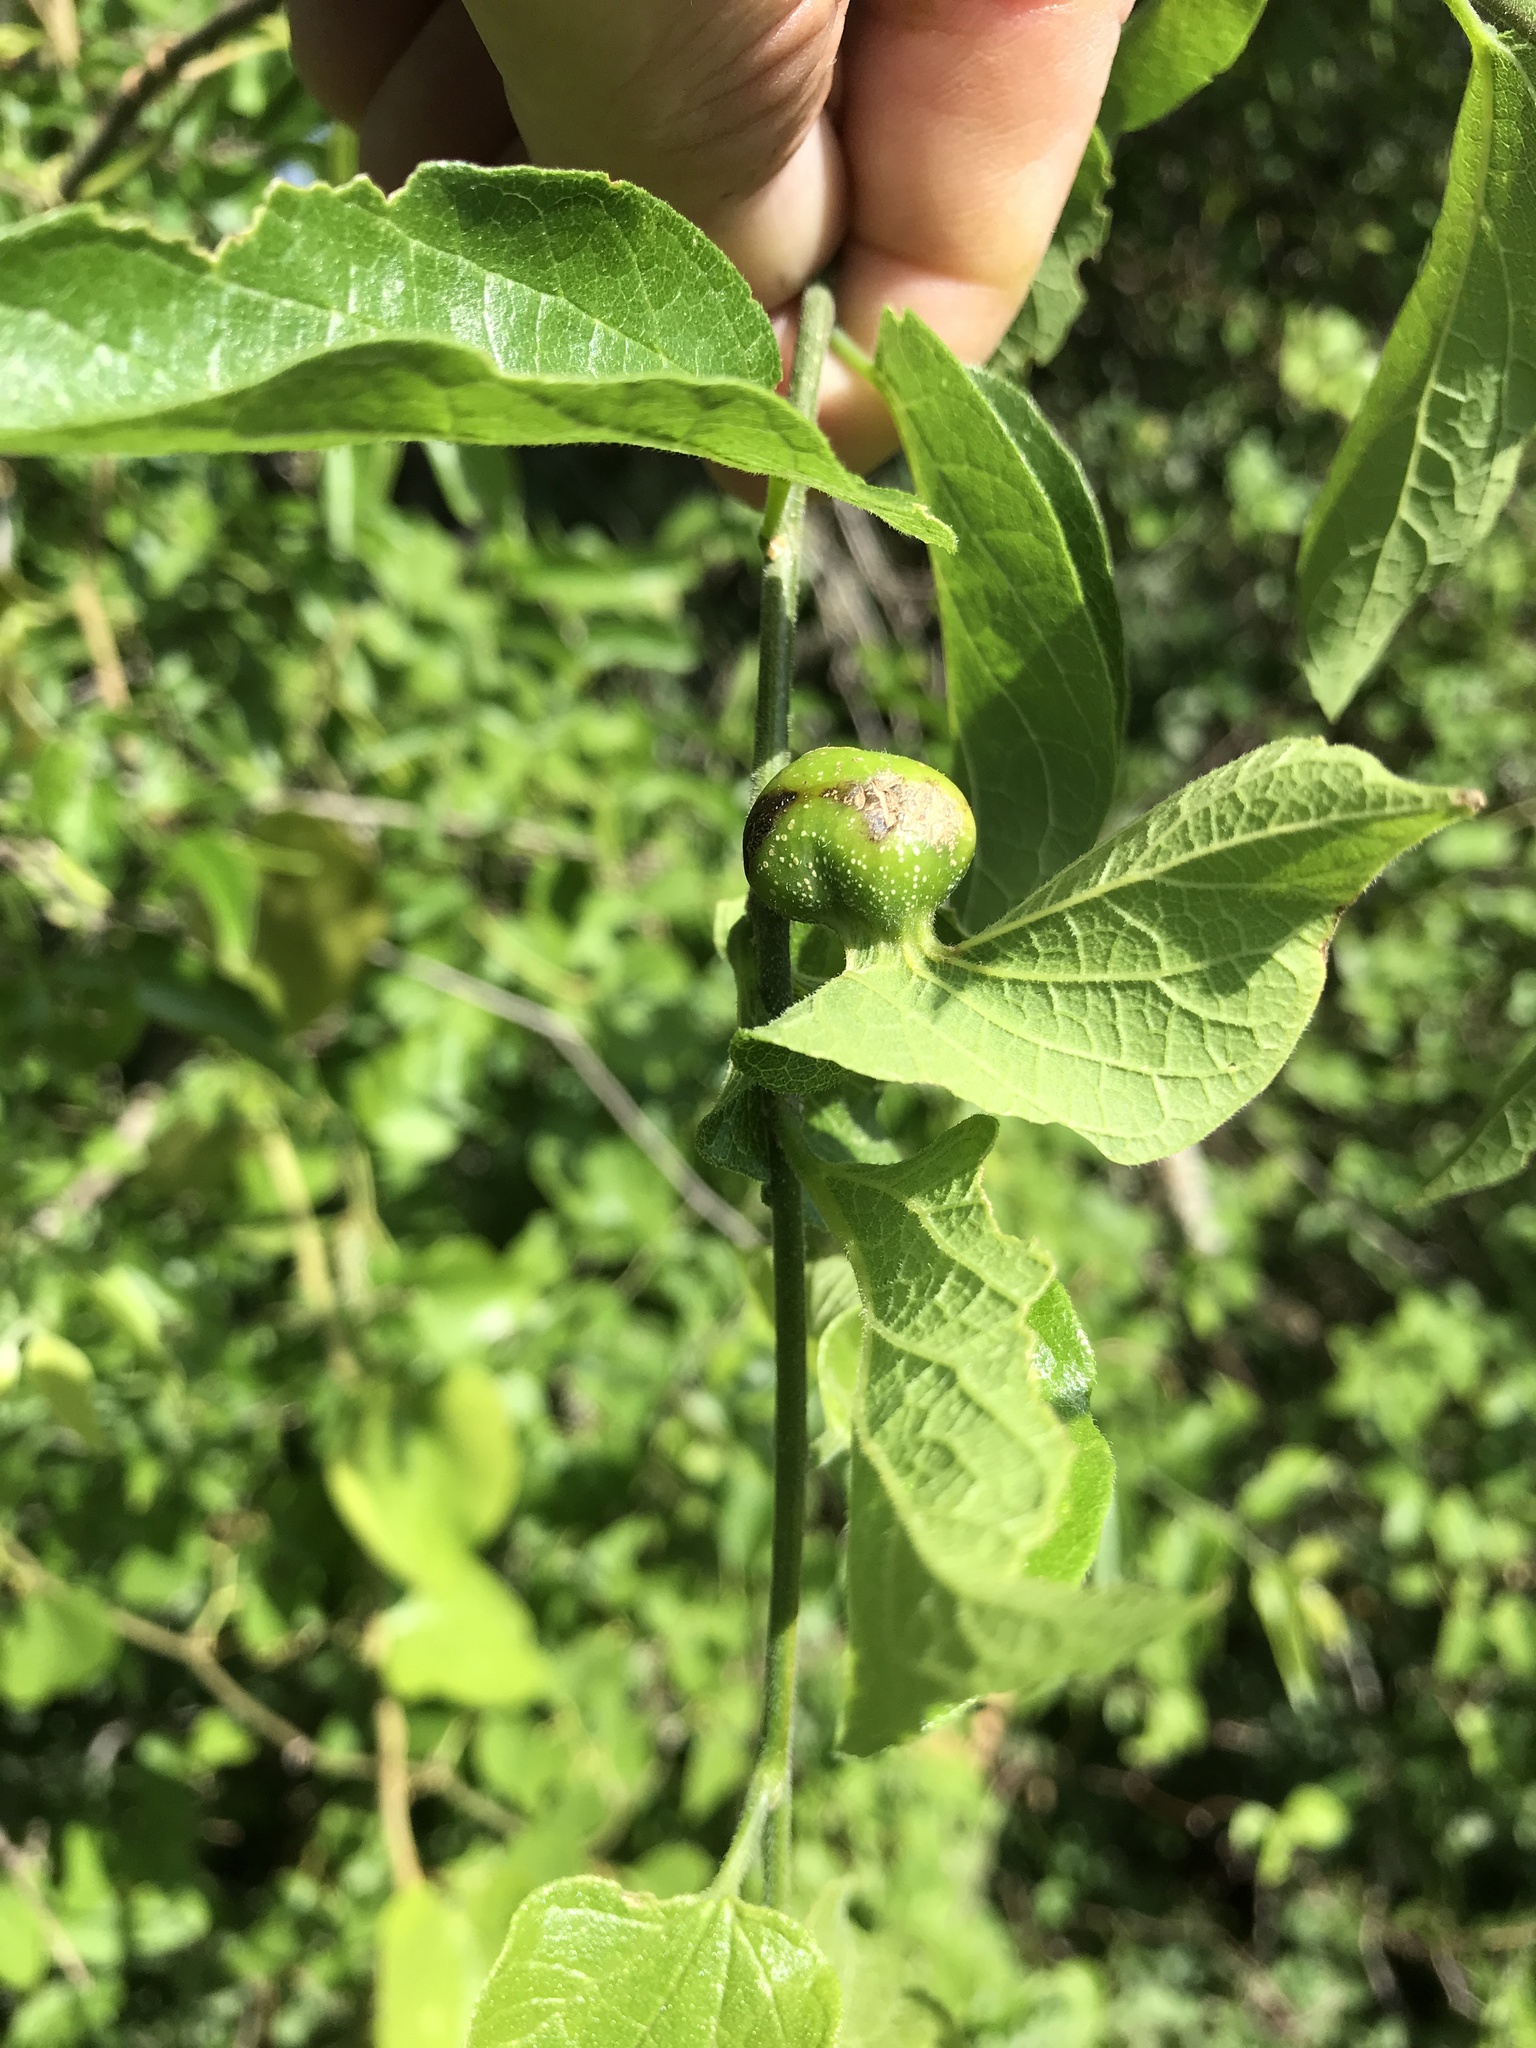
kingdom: Animalia
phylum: Arthropoda
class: Insecta
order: Hemiptera
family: Aphalaridae
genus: Pachypsylla
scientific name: Pachypsylla venusta
